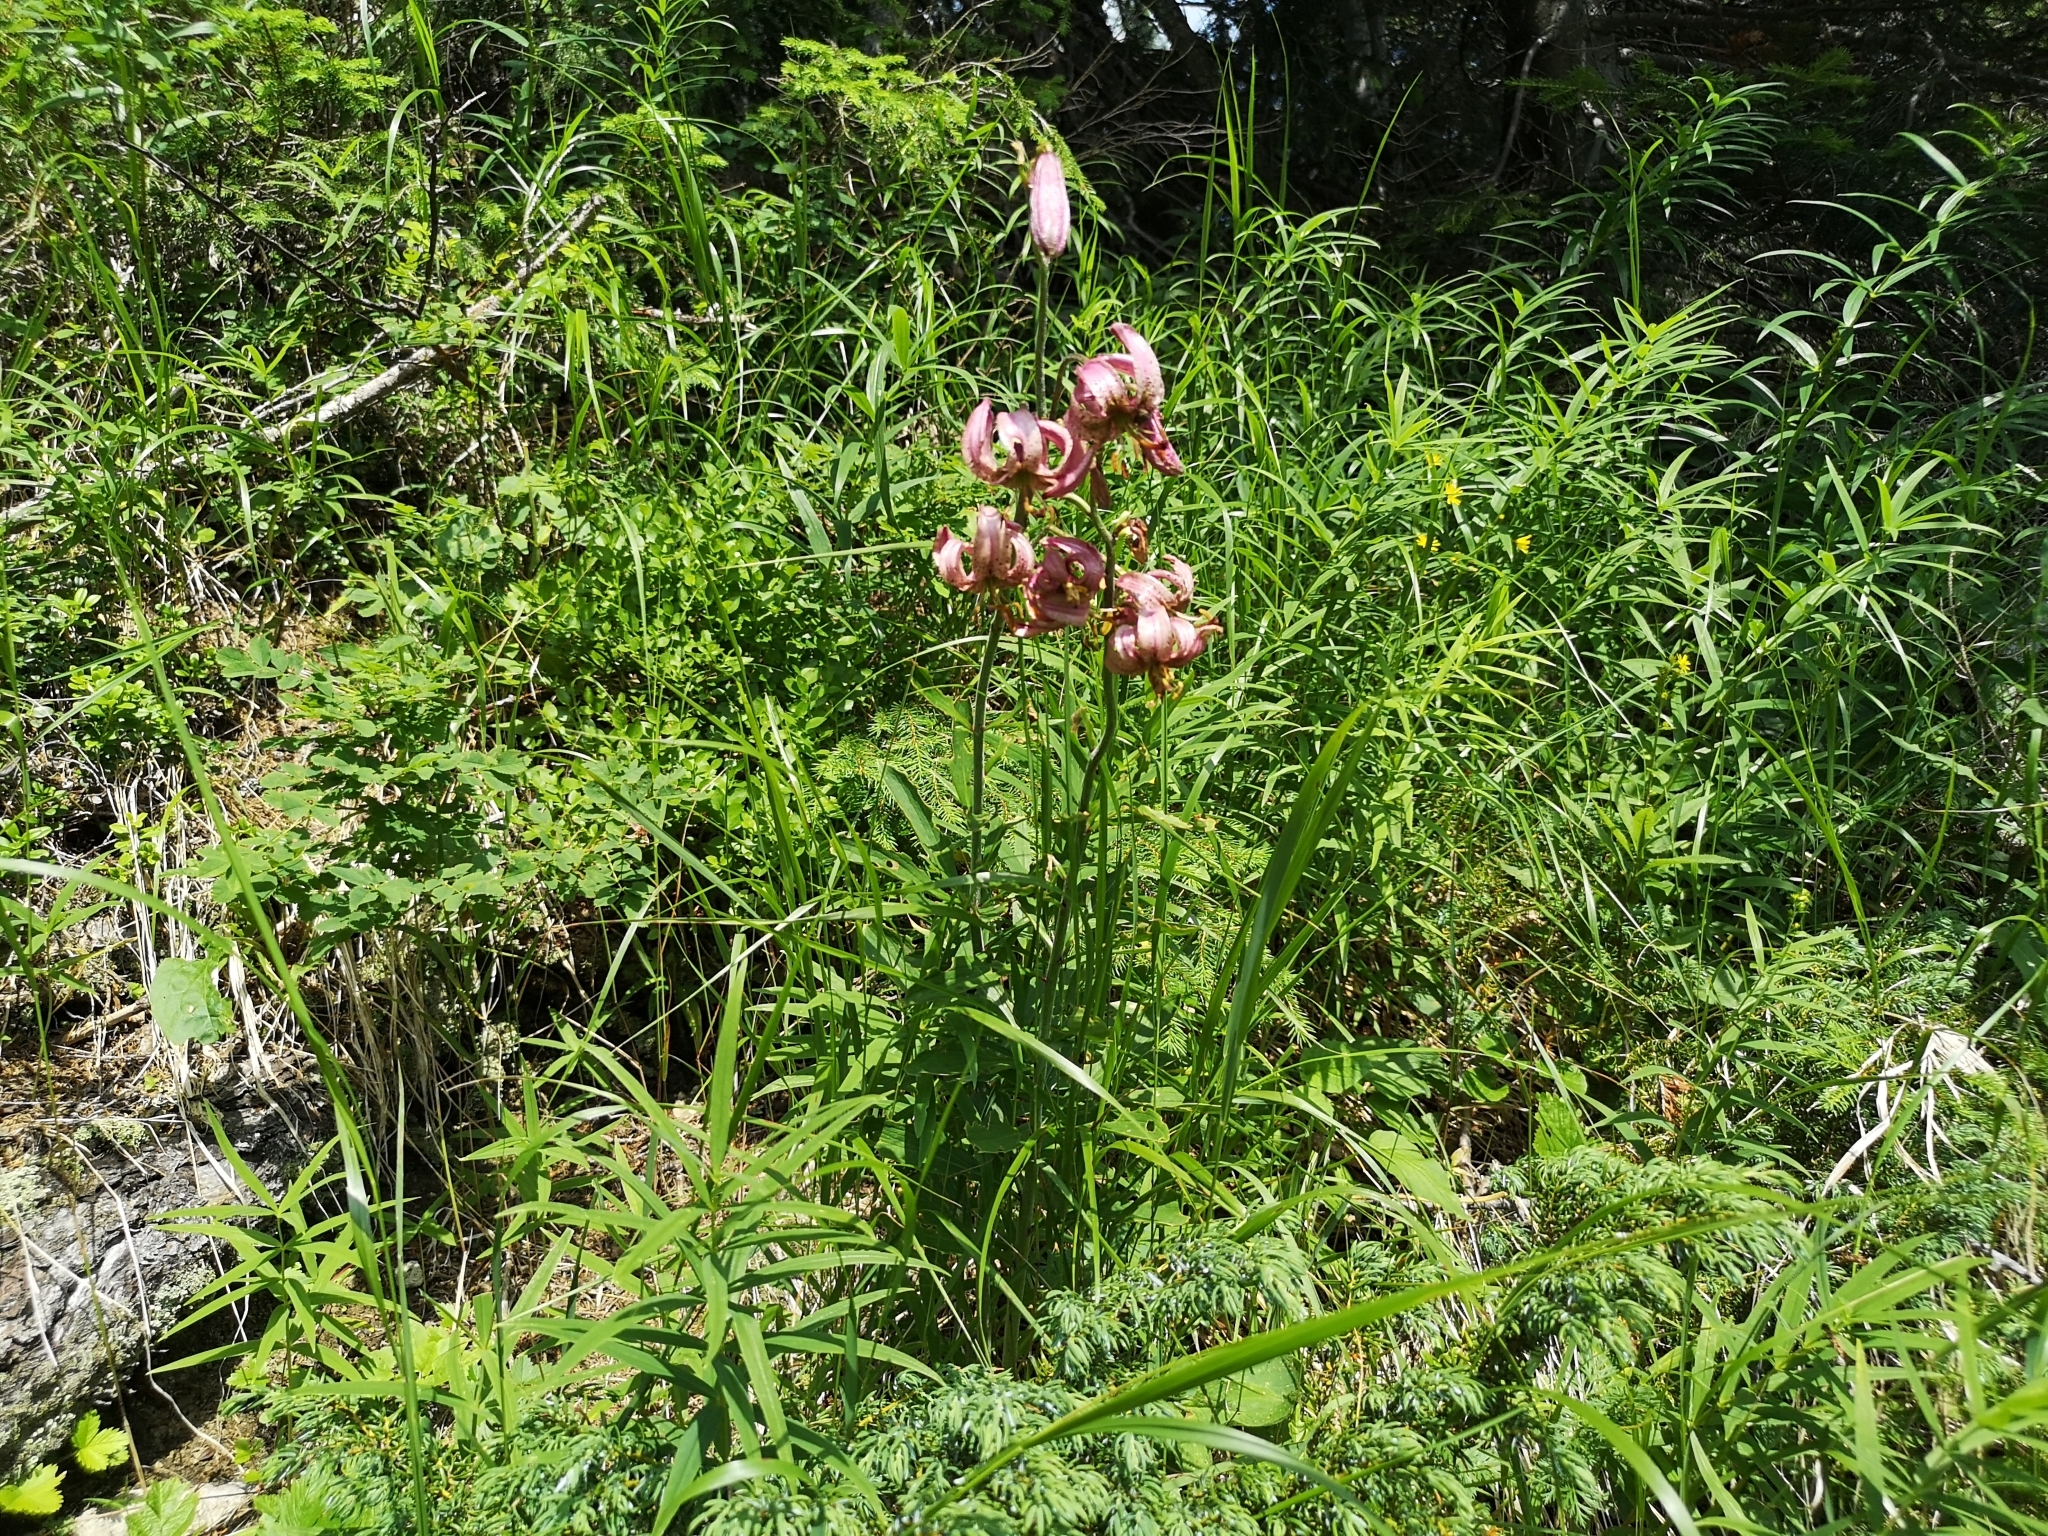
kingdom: Plantae
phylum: Tracheophyta
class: Liliopsida
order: Liliales
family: Liliaceae
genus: Lilium
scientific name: Lilium martagon
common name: Martagon lily
